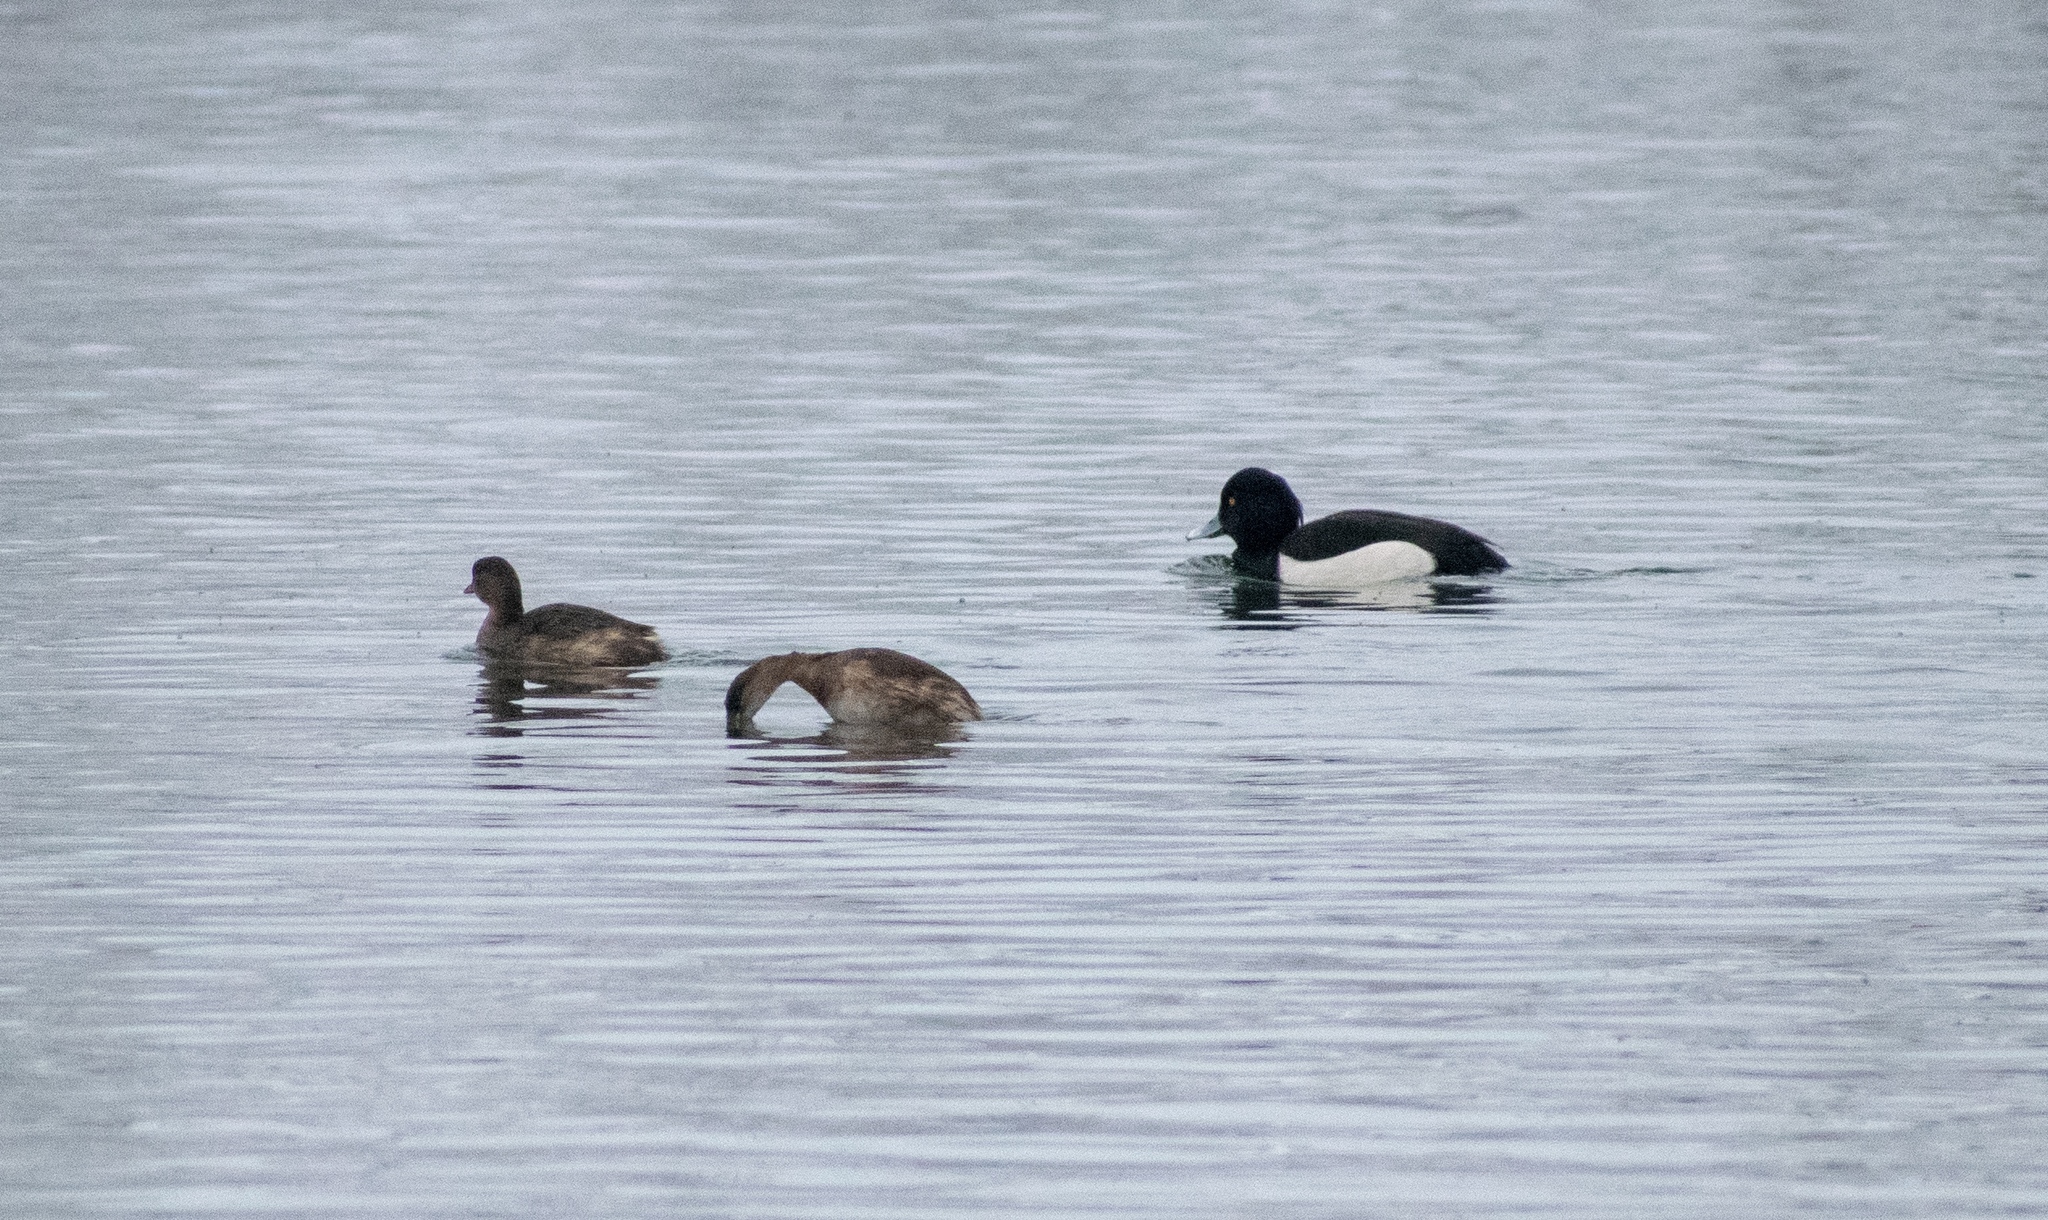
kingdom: Animalia
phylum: Chordata
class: Aves
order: Anseriformes
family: Anatidae
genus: Aythya
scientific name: Aythya fuligula
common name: Tufted duck
